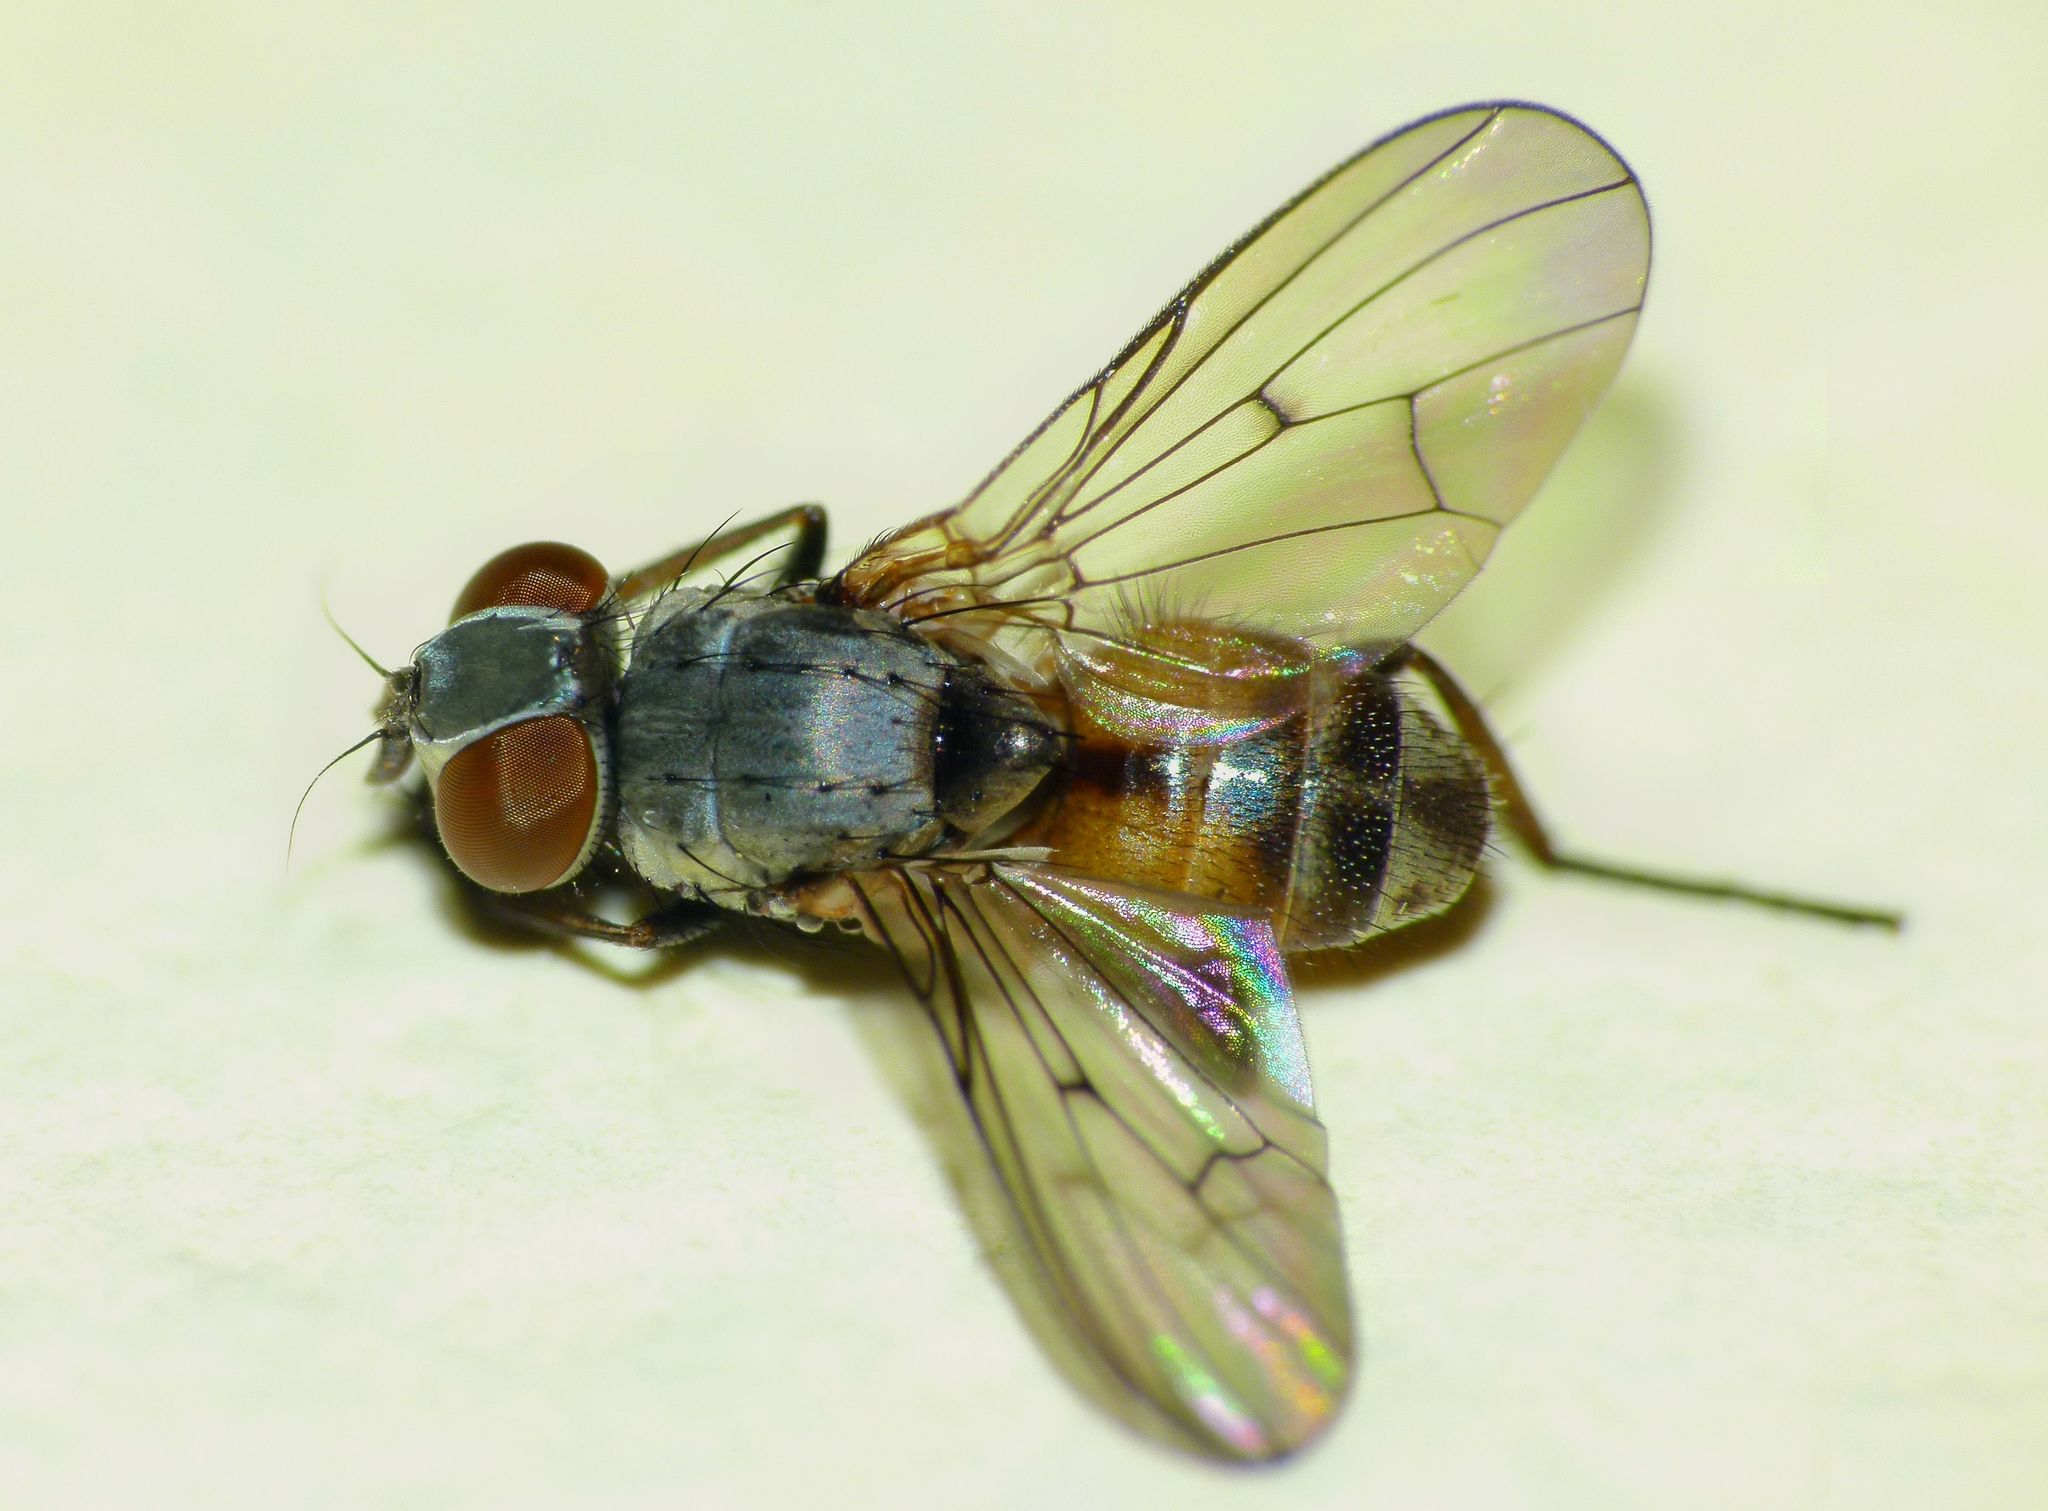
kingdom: Animalia
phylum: Arthropoda
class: Insecta
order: Diptera
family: Muscidae
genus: Spilogona
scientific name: Spilogona flaviventris
